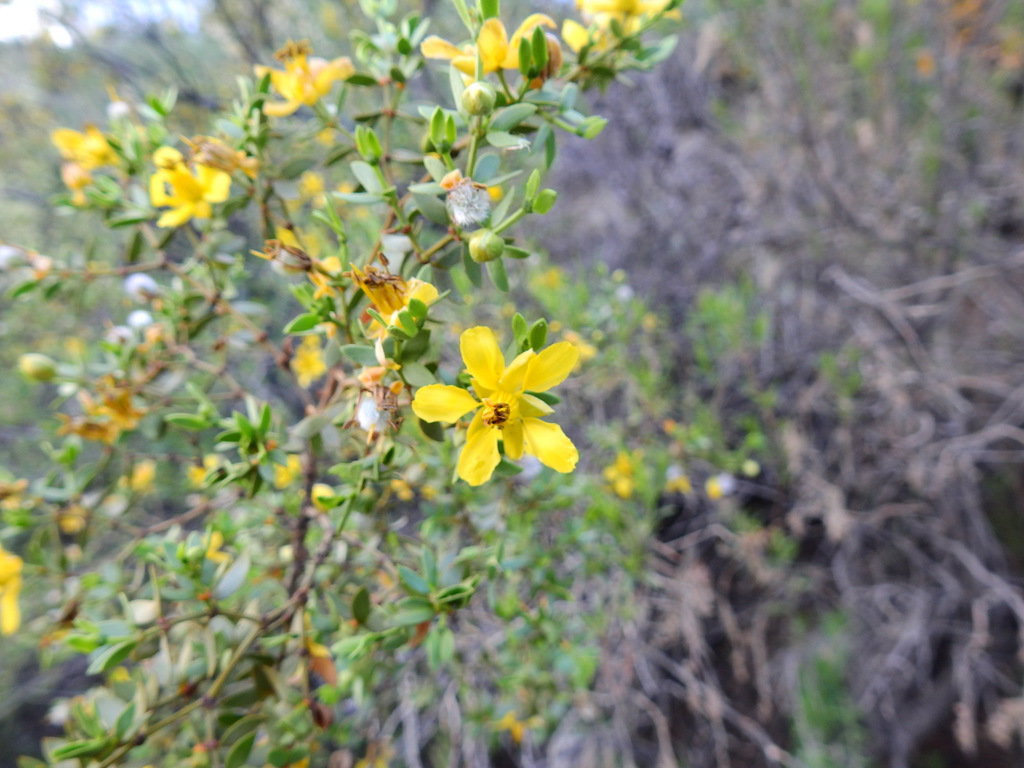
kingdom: Plantae
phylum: Tracheophyta
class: Magnoliopsida
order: Zygophyllales
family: Zygophyllaceae
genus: Larrea
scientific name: Larrea divaricata
